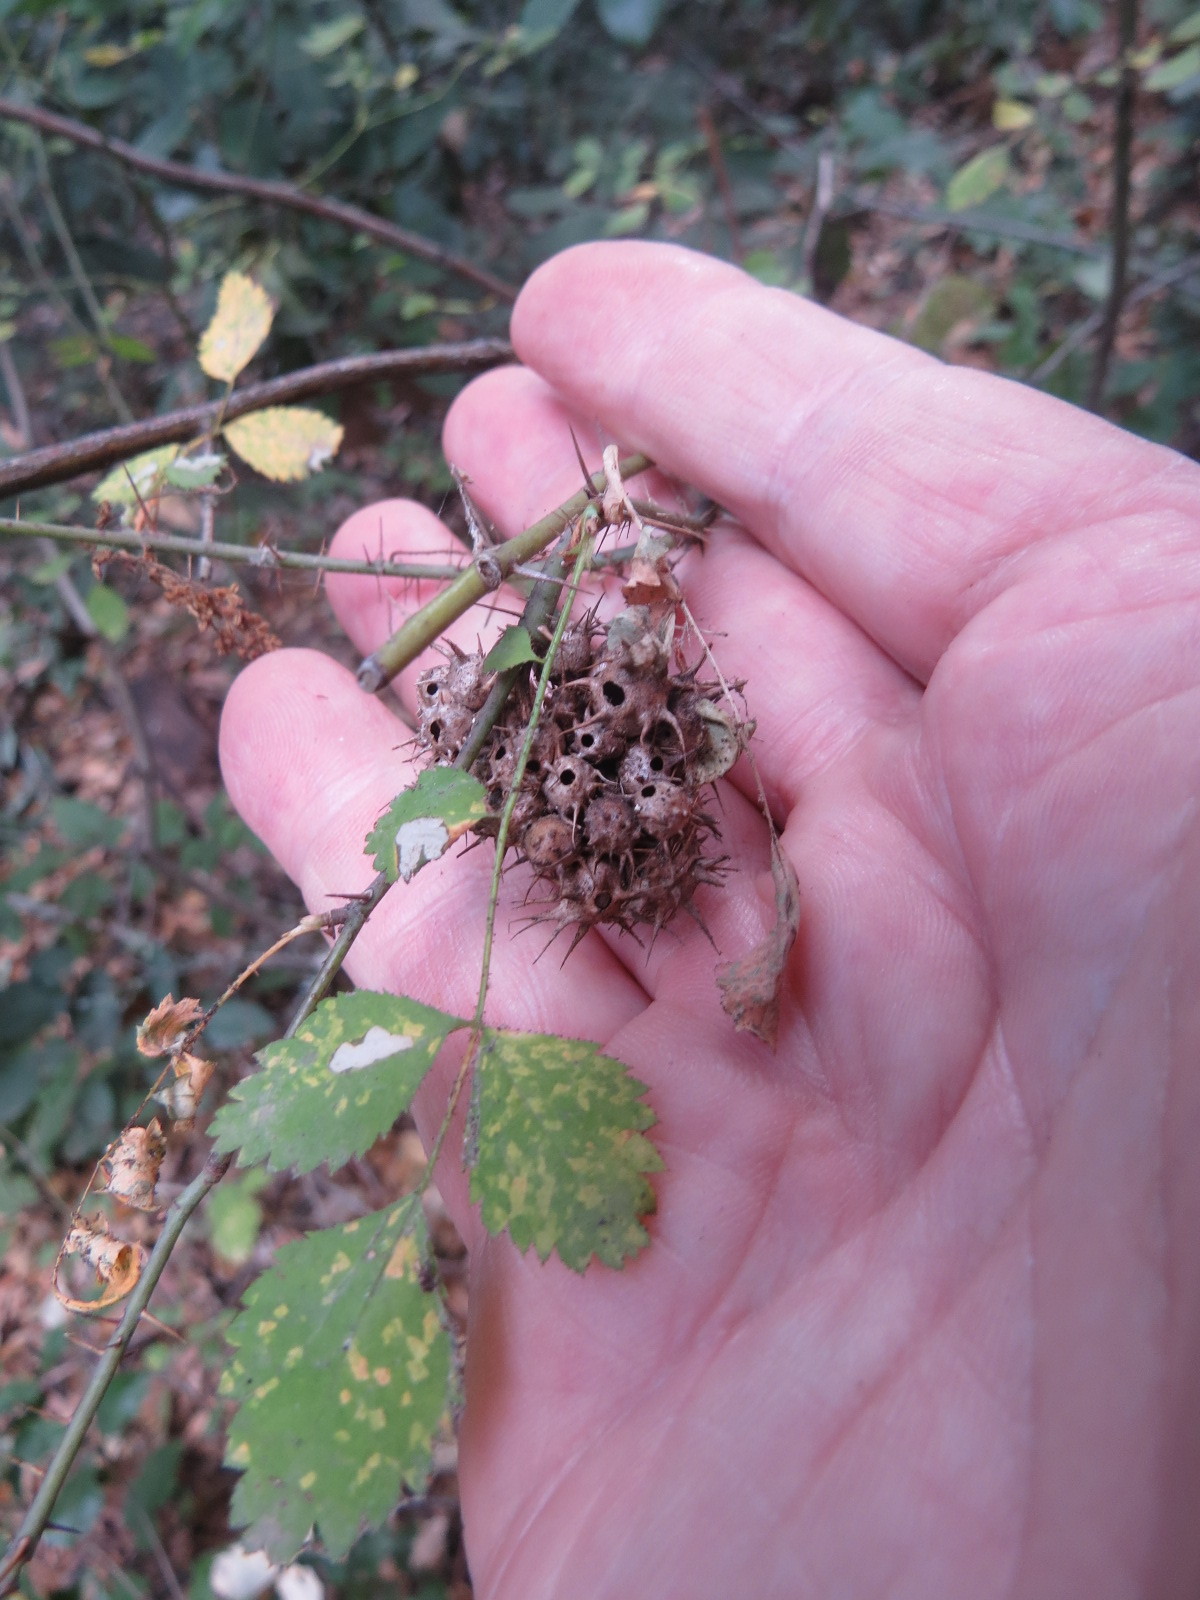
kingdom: Animalia
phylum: Arthropoda
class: Insecta
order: Hymenoptera
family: Cynipidae
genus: Diplolepis
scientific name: Diplolepis bicolor
